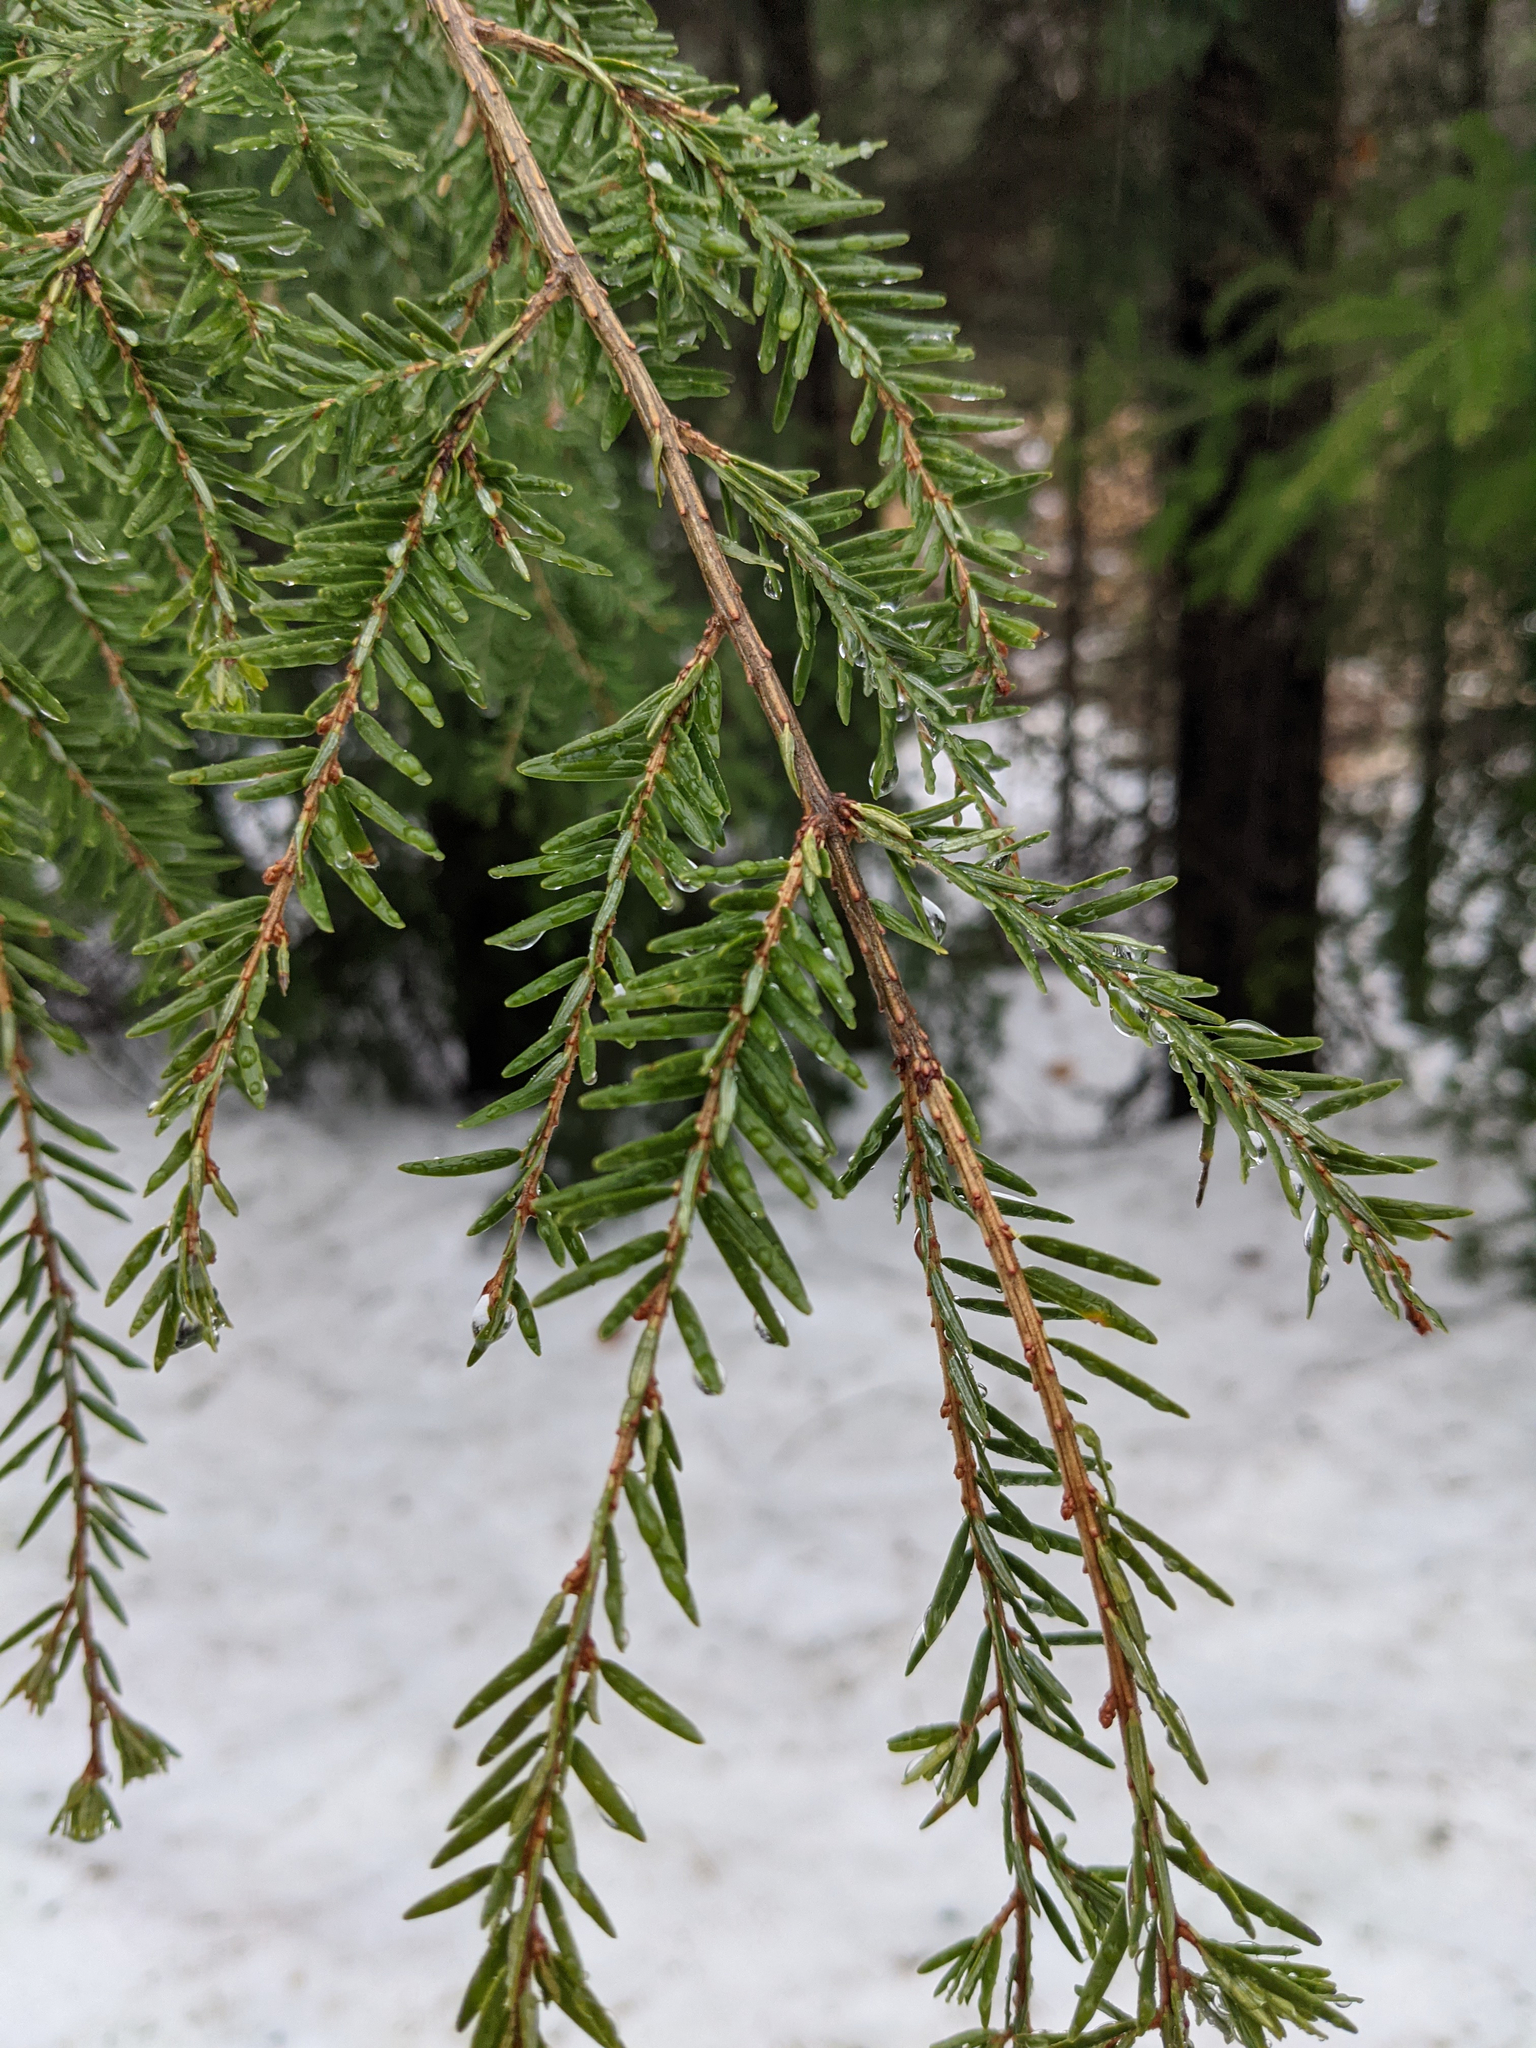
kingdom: Plantae
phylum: Tracheophyta
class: Pinopsida
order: Pinales
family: Pinaceae
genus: Tsuga
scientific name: Tsuga canadensis
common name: Eastern hemlock
